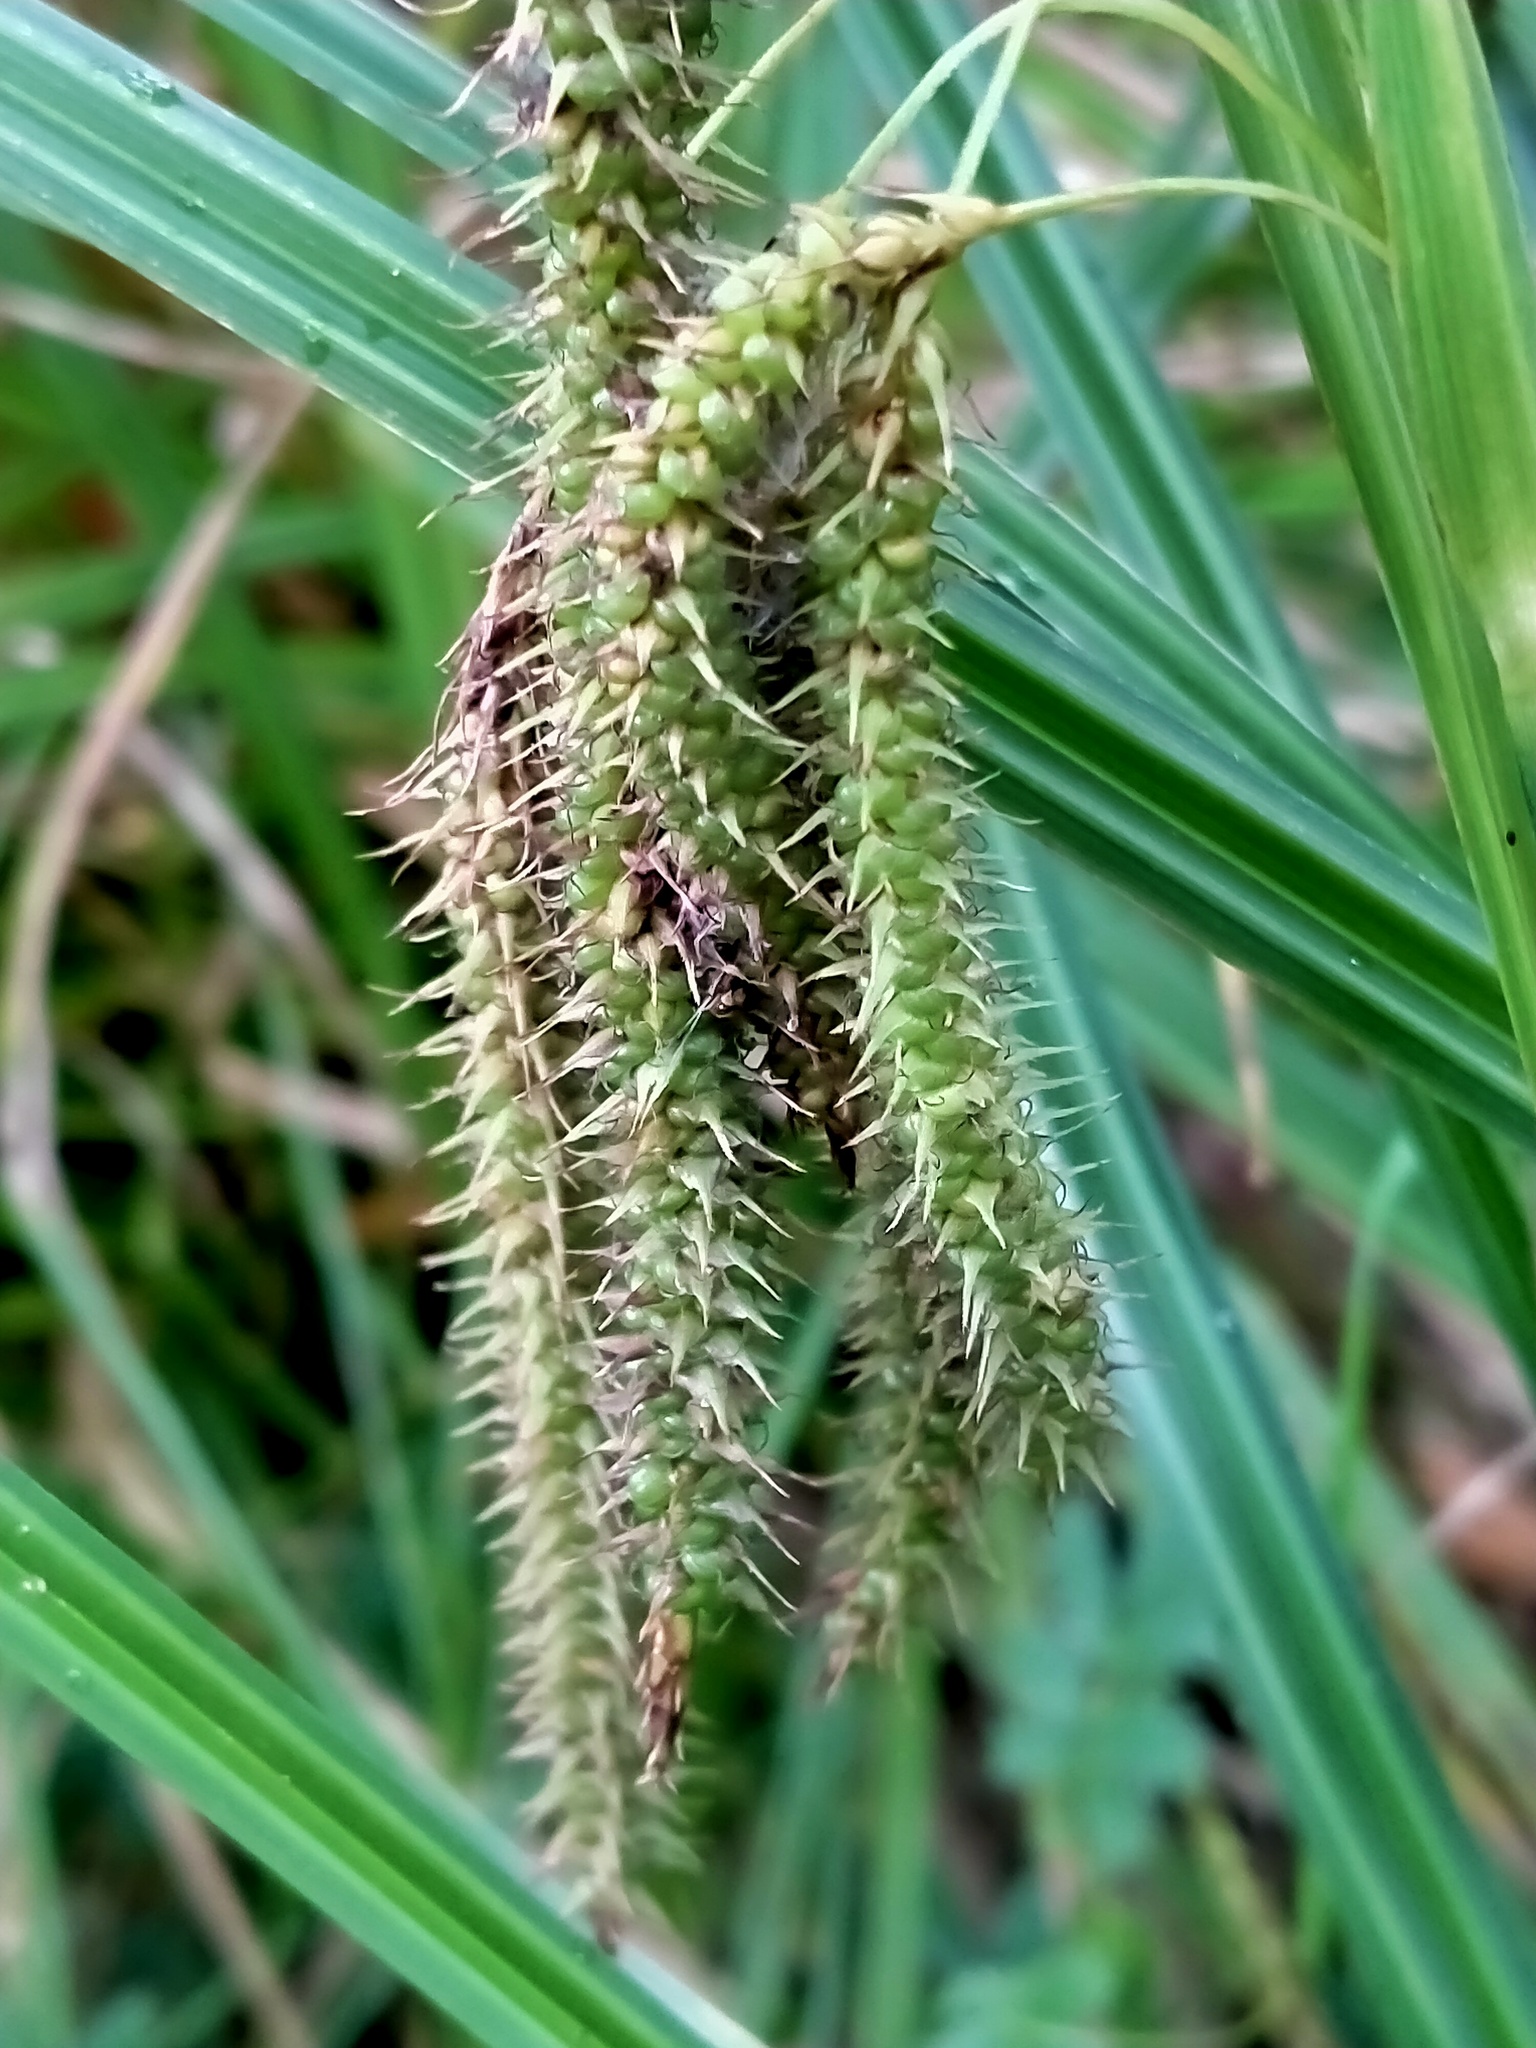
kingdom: Plantae
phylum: Tracheophyta
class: Liliopsida
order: Poales
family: Cyperaceae
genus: Carex
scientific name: Carex
